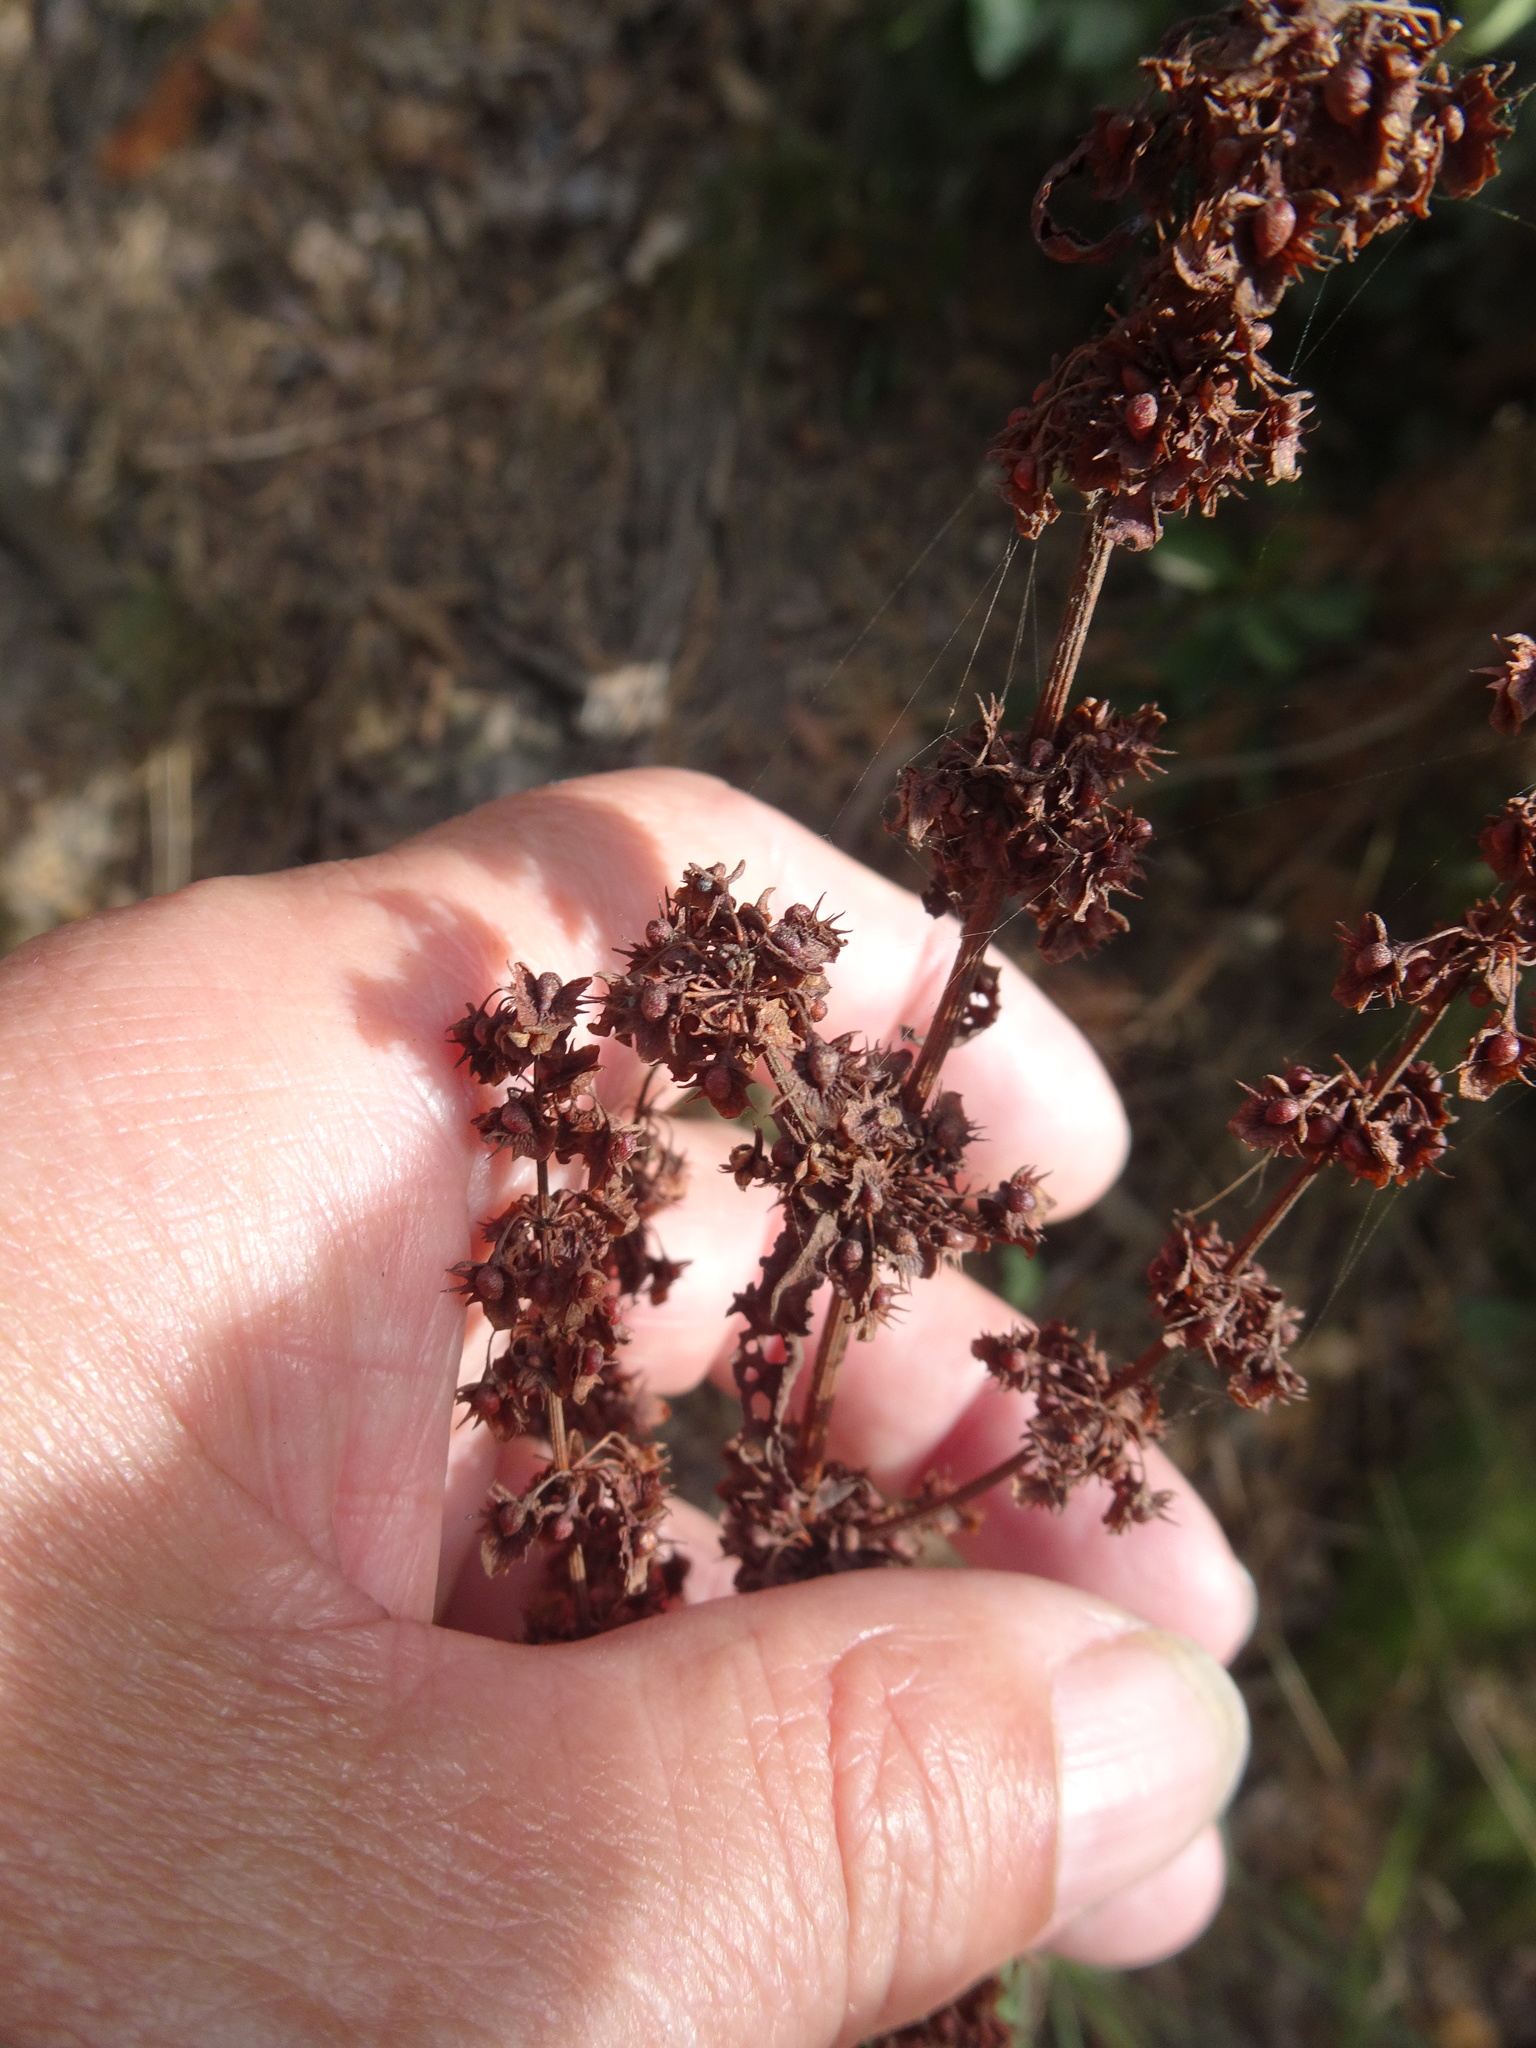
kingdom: Plantae
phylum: Tracheophyta
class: Magnoliopsida
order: Caryophyllales
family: Polygonaceae
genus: Rumex
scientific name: Rumex obtusifolius
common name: Bitter dock
